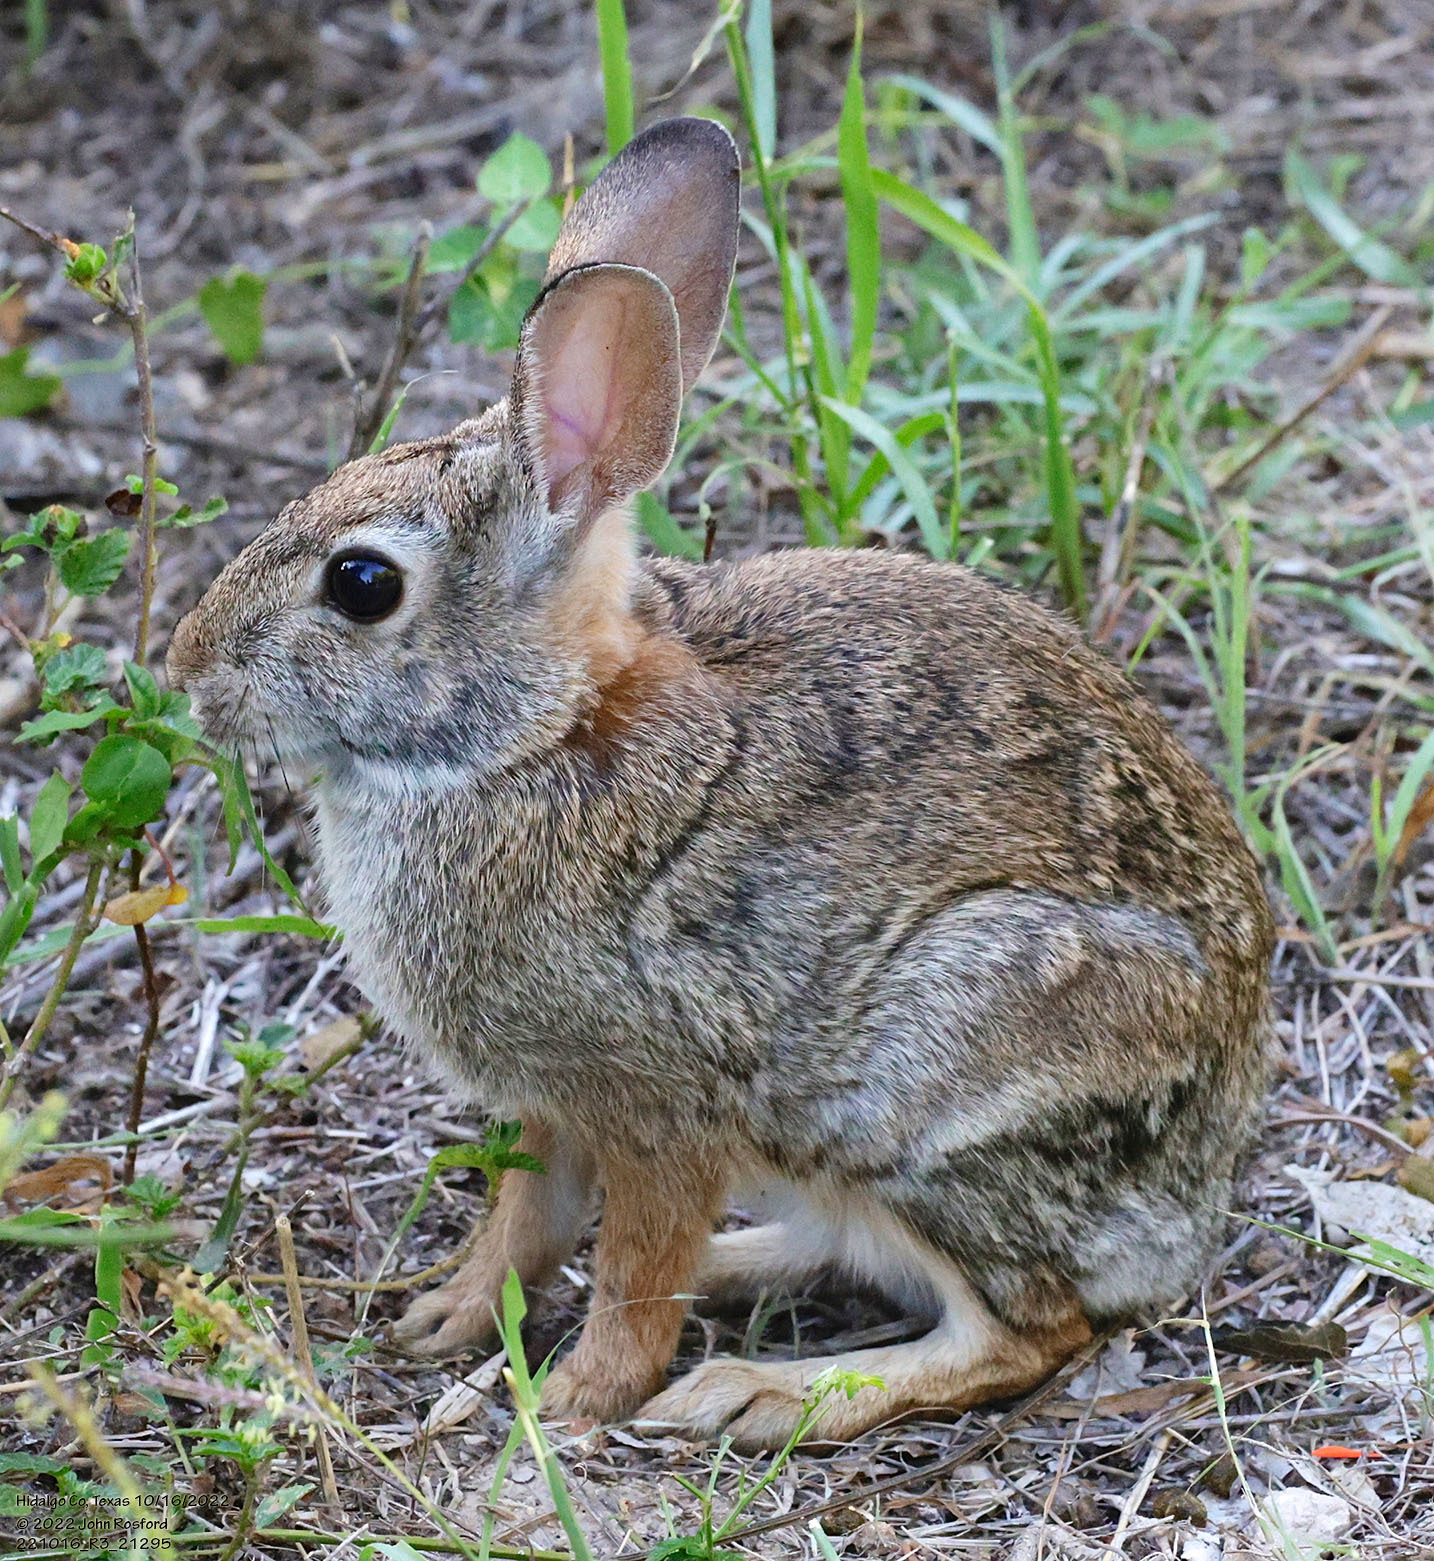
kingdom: Animalia
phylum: Chordata
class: Mammalia
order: Lagomorpha
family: Leporidae
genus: Sylvilagus
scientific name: Sylvilagus floridanus
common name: Eastern cottontail
